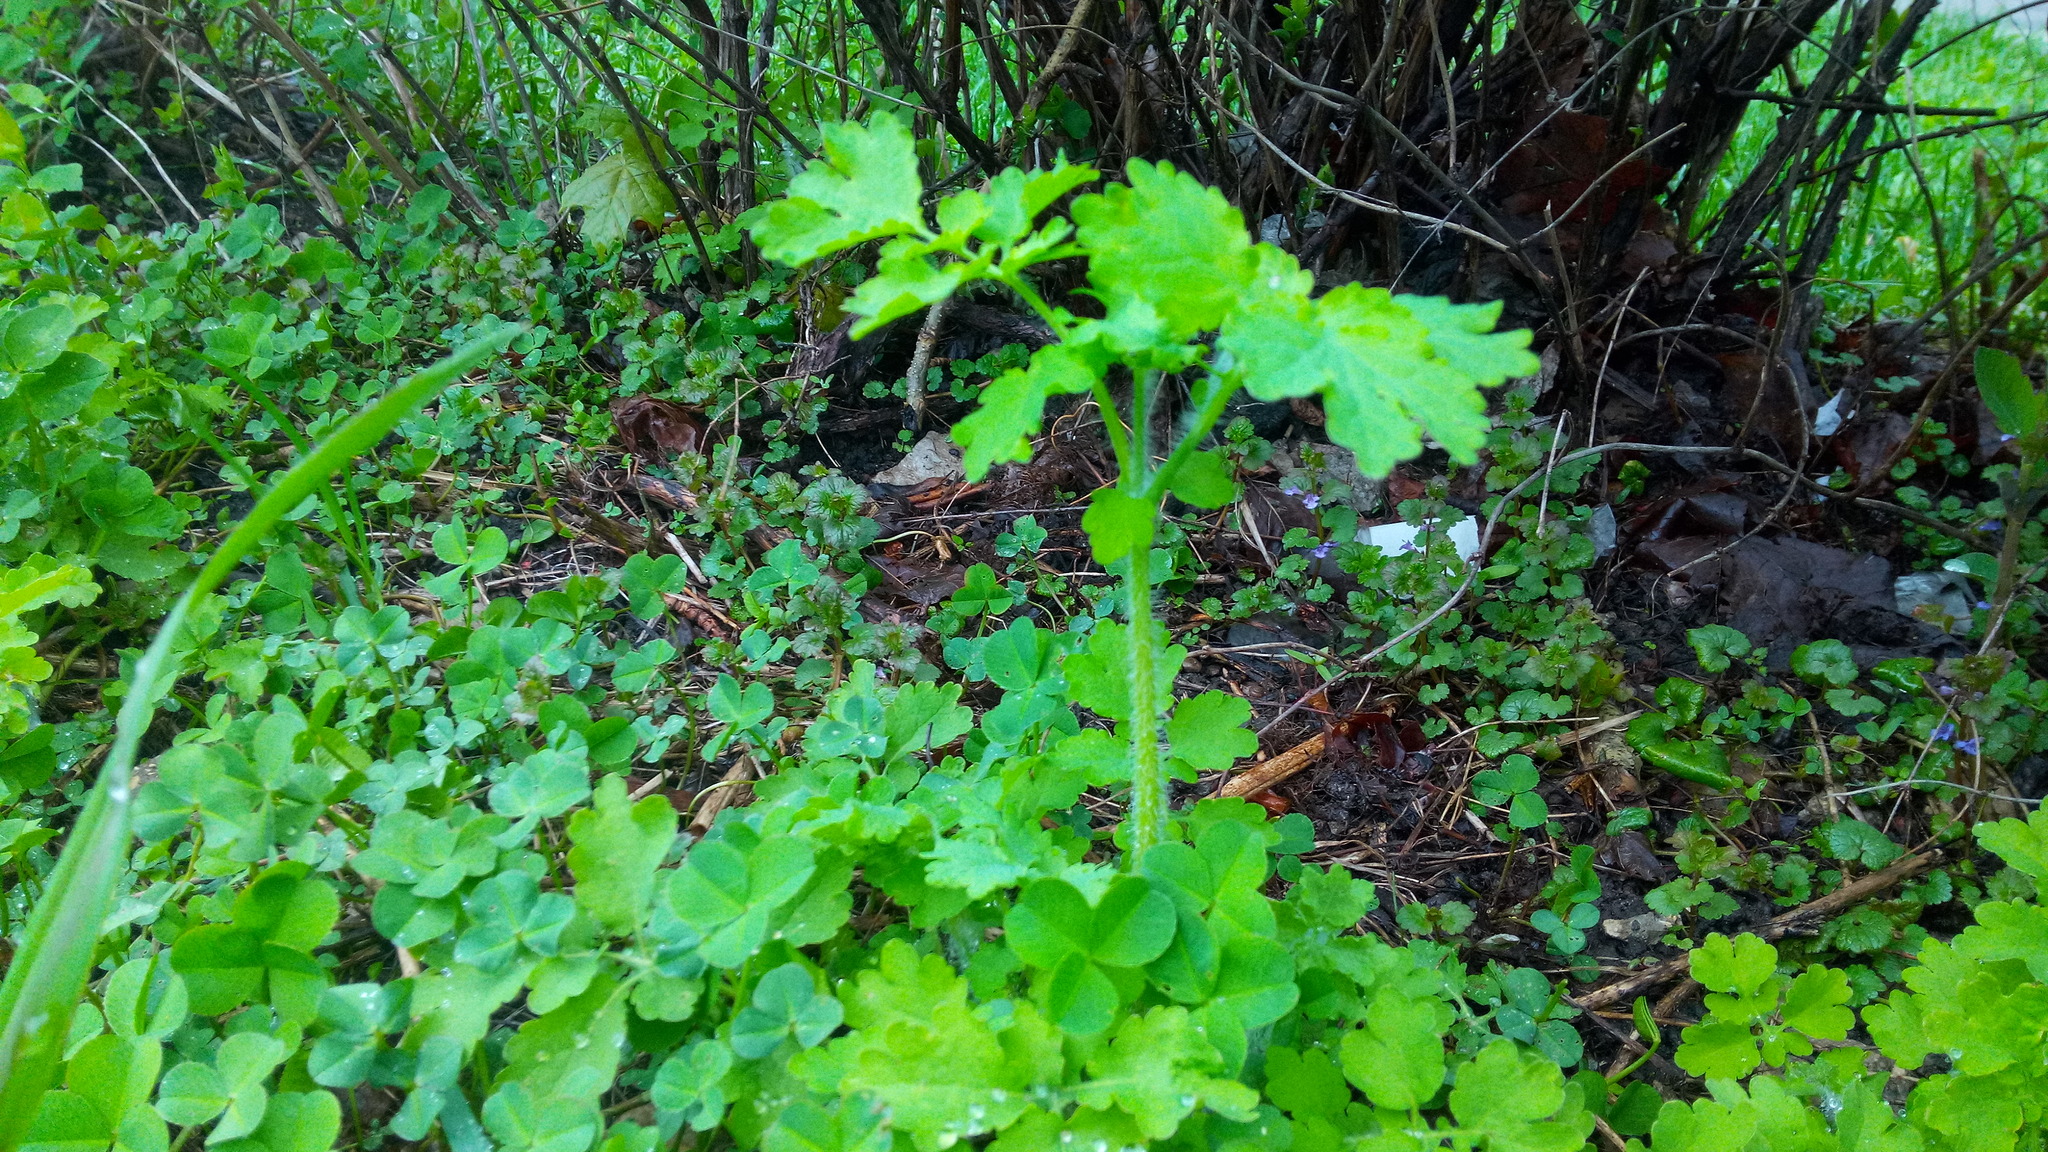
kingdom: Plantae
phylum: Tracheophyta
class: Magnoliopsida
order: Ranunculales
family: Papaveraceae
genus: Chelidonium
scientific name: Chelidonium majus
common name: Greater celandine
